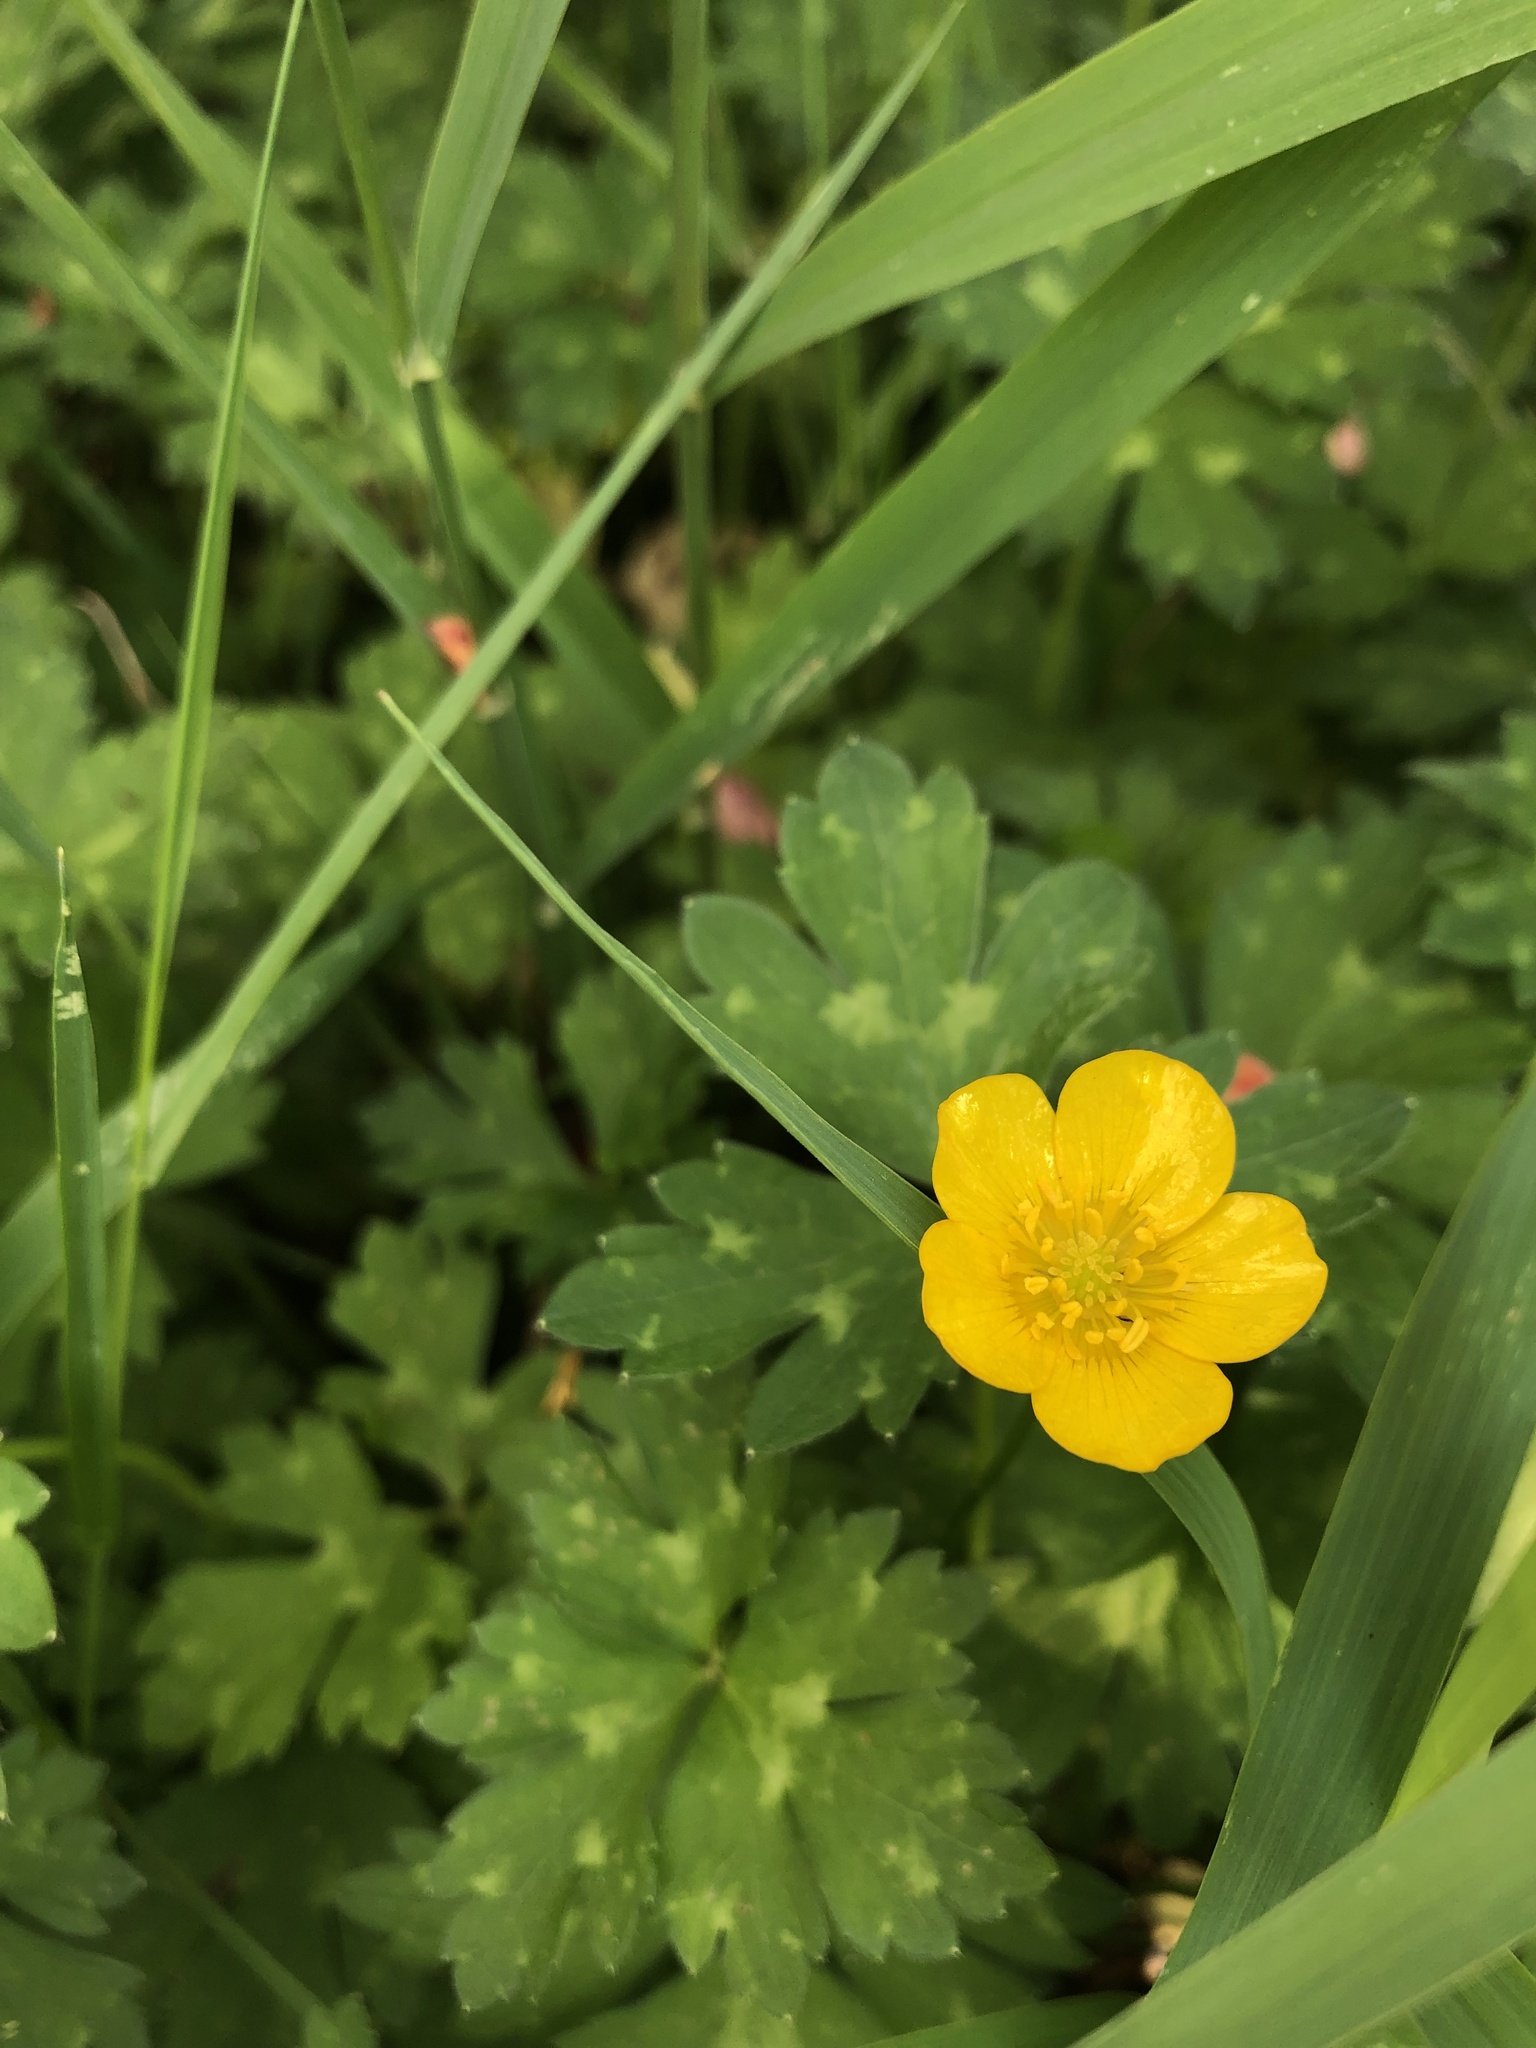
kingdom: Plantae
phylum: Tracheophyta
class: Magnoliopsida
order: Ranunculales
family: Ranunculaceae
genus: Ranunculus
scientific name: Ranunculus repens
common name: Creeping buttercup
